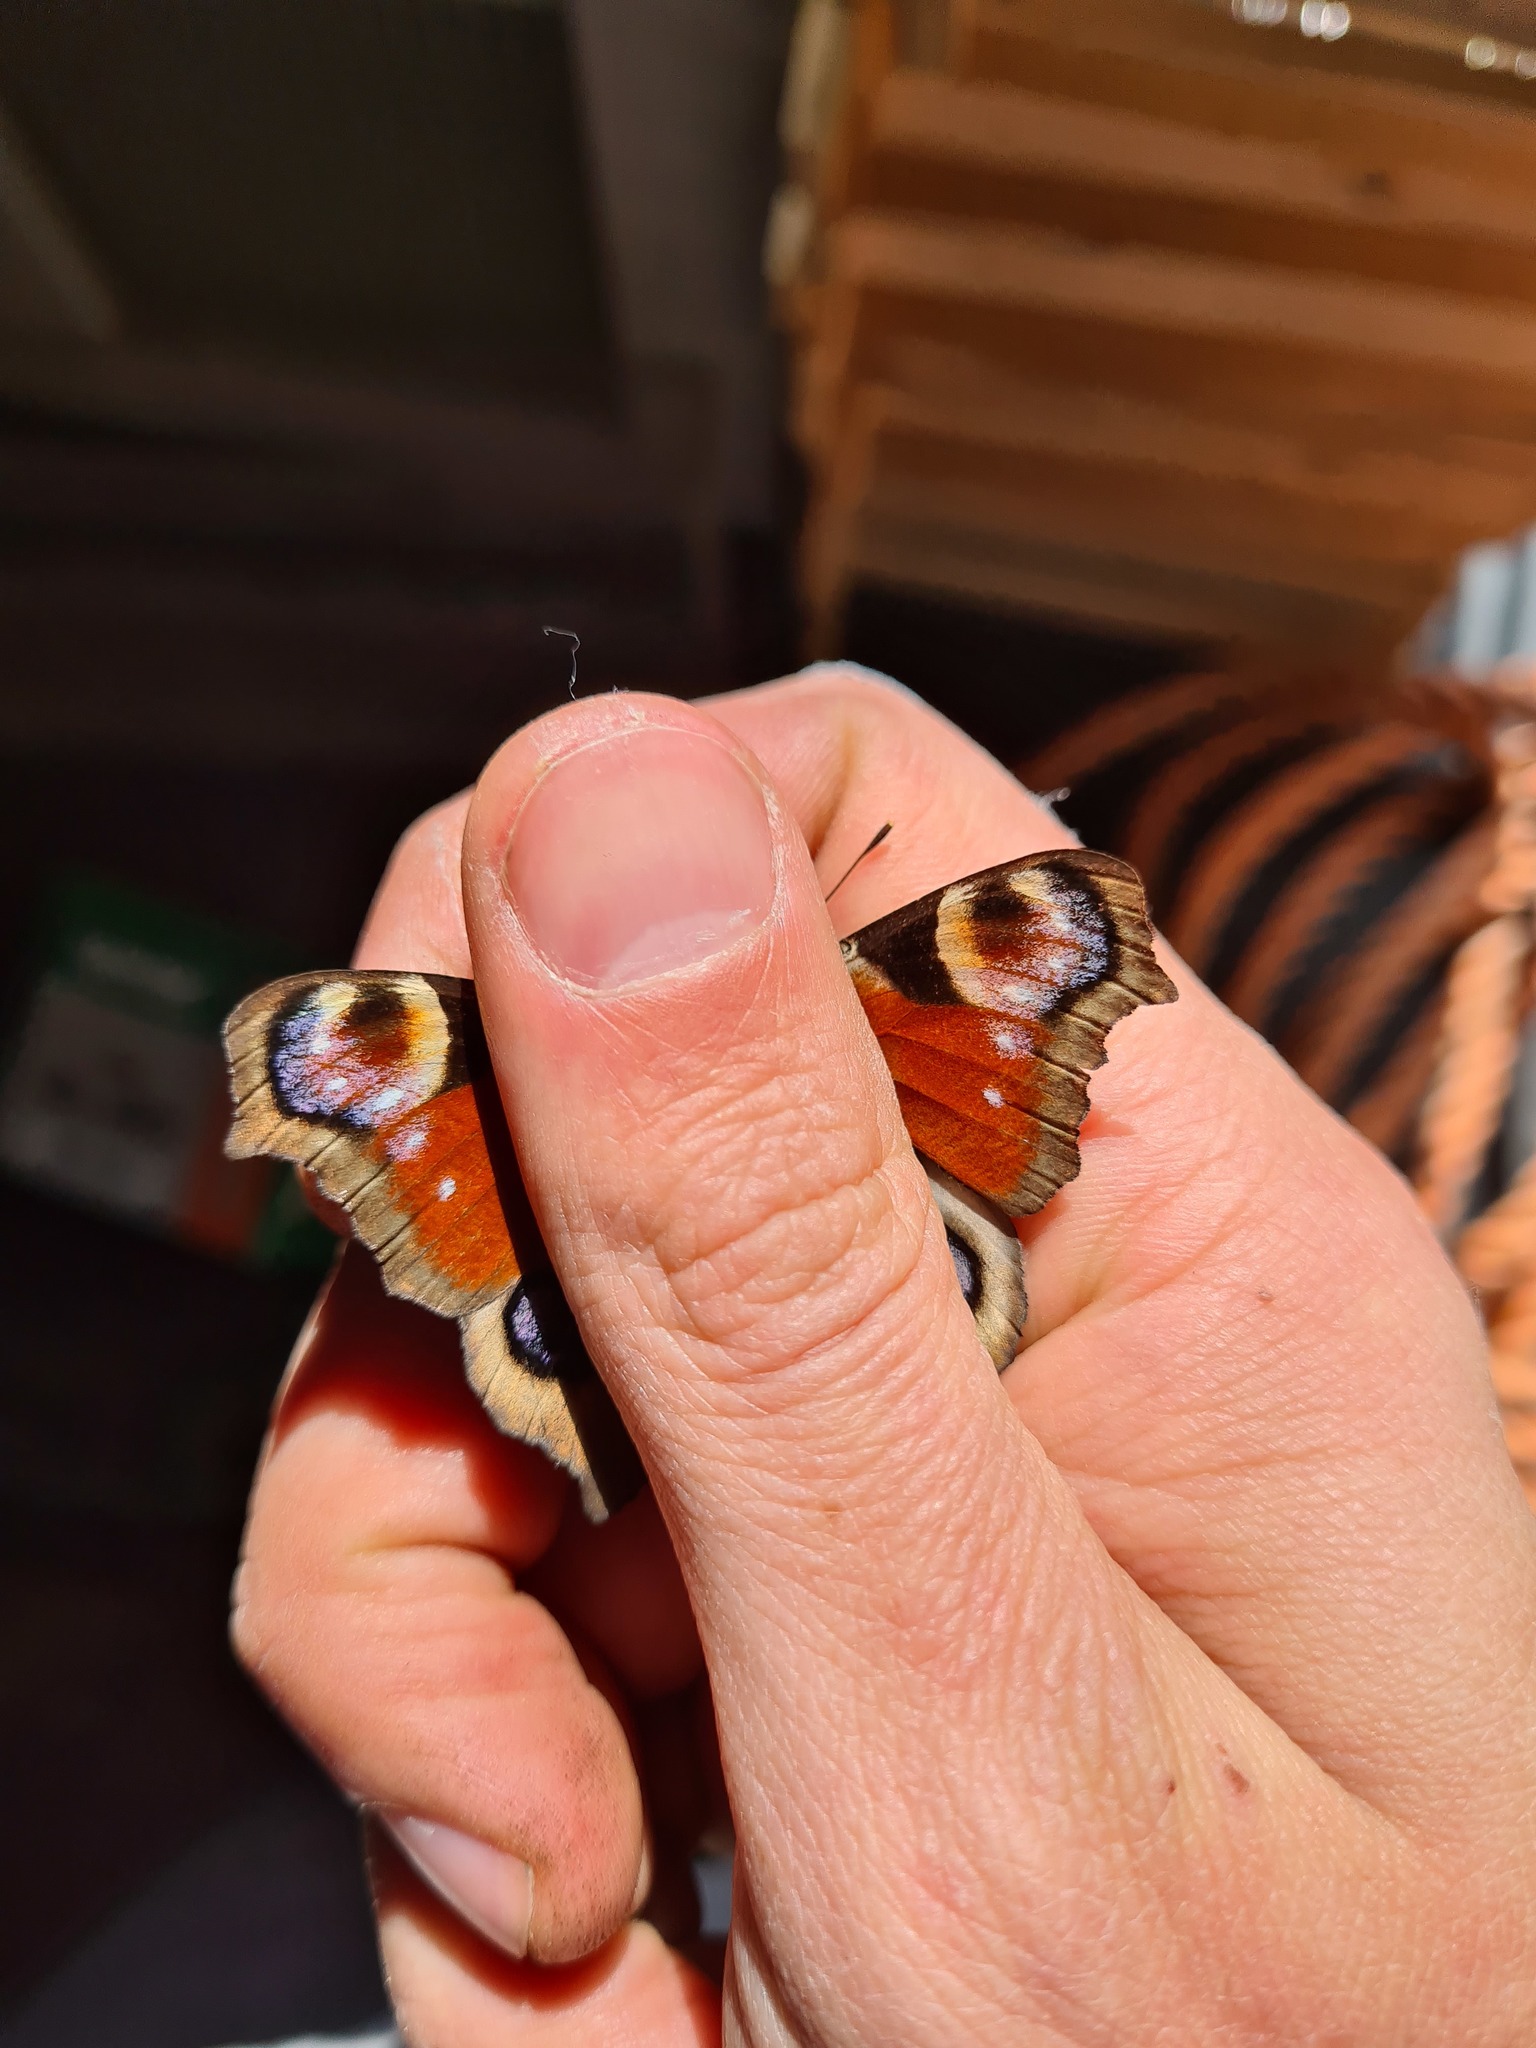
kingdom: Animalia
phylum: Arthropoda
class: Insecta
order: Lepidoptera
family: Nymphalidae
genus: Aglais
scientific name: Aglais io
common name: Peacock
